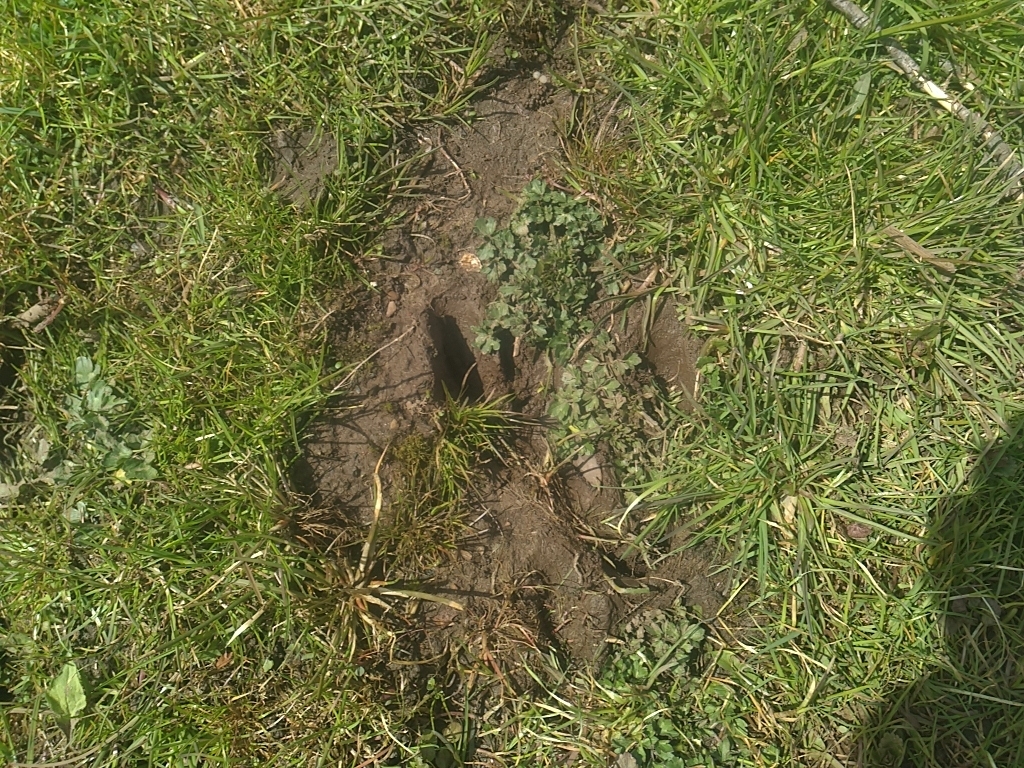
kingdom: Animalia
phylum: Chordata
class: Mammalia
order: Artiodactyla
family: Cervidae
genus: Odocoileus
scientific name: Odocoileus virginianus
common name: White-tailed deer
